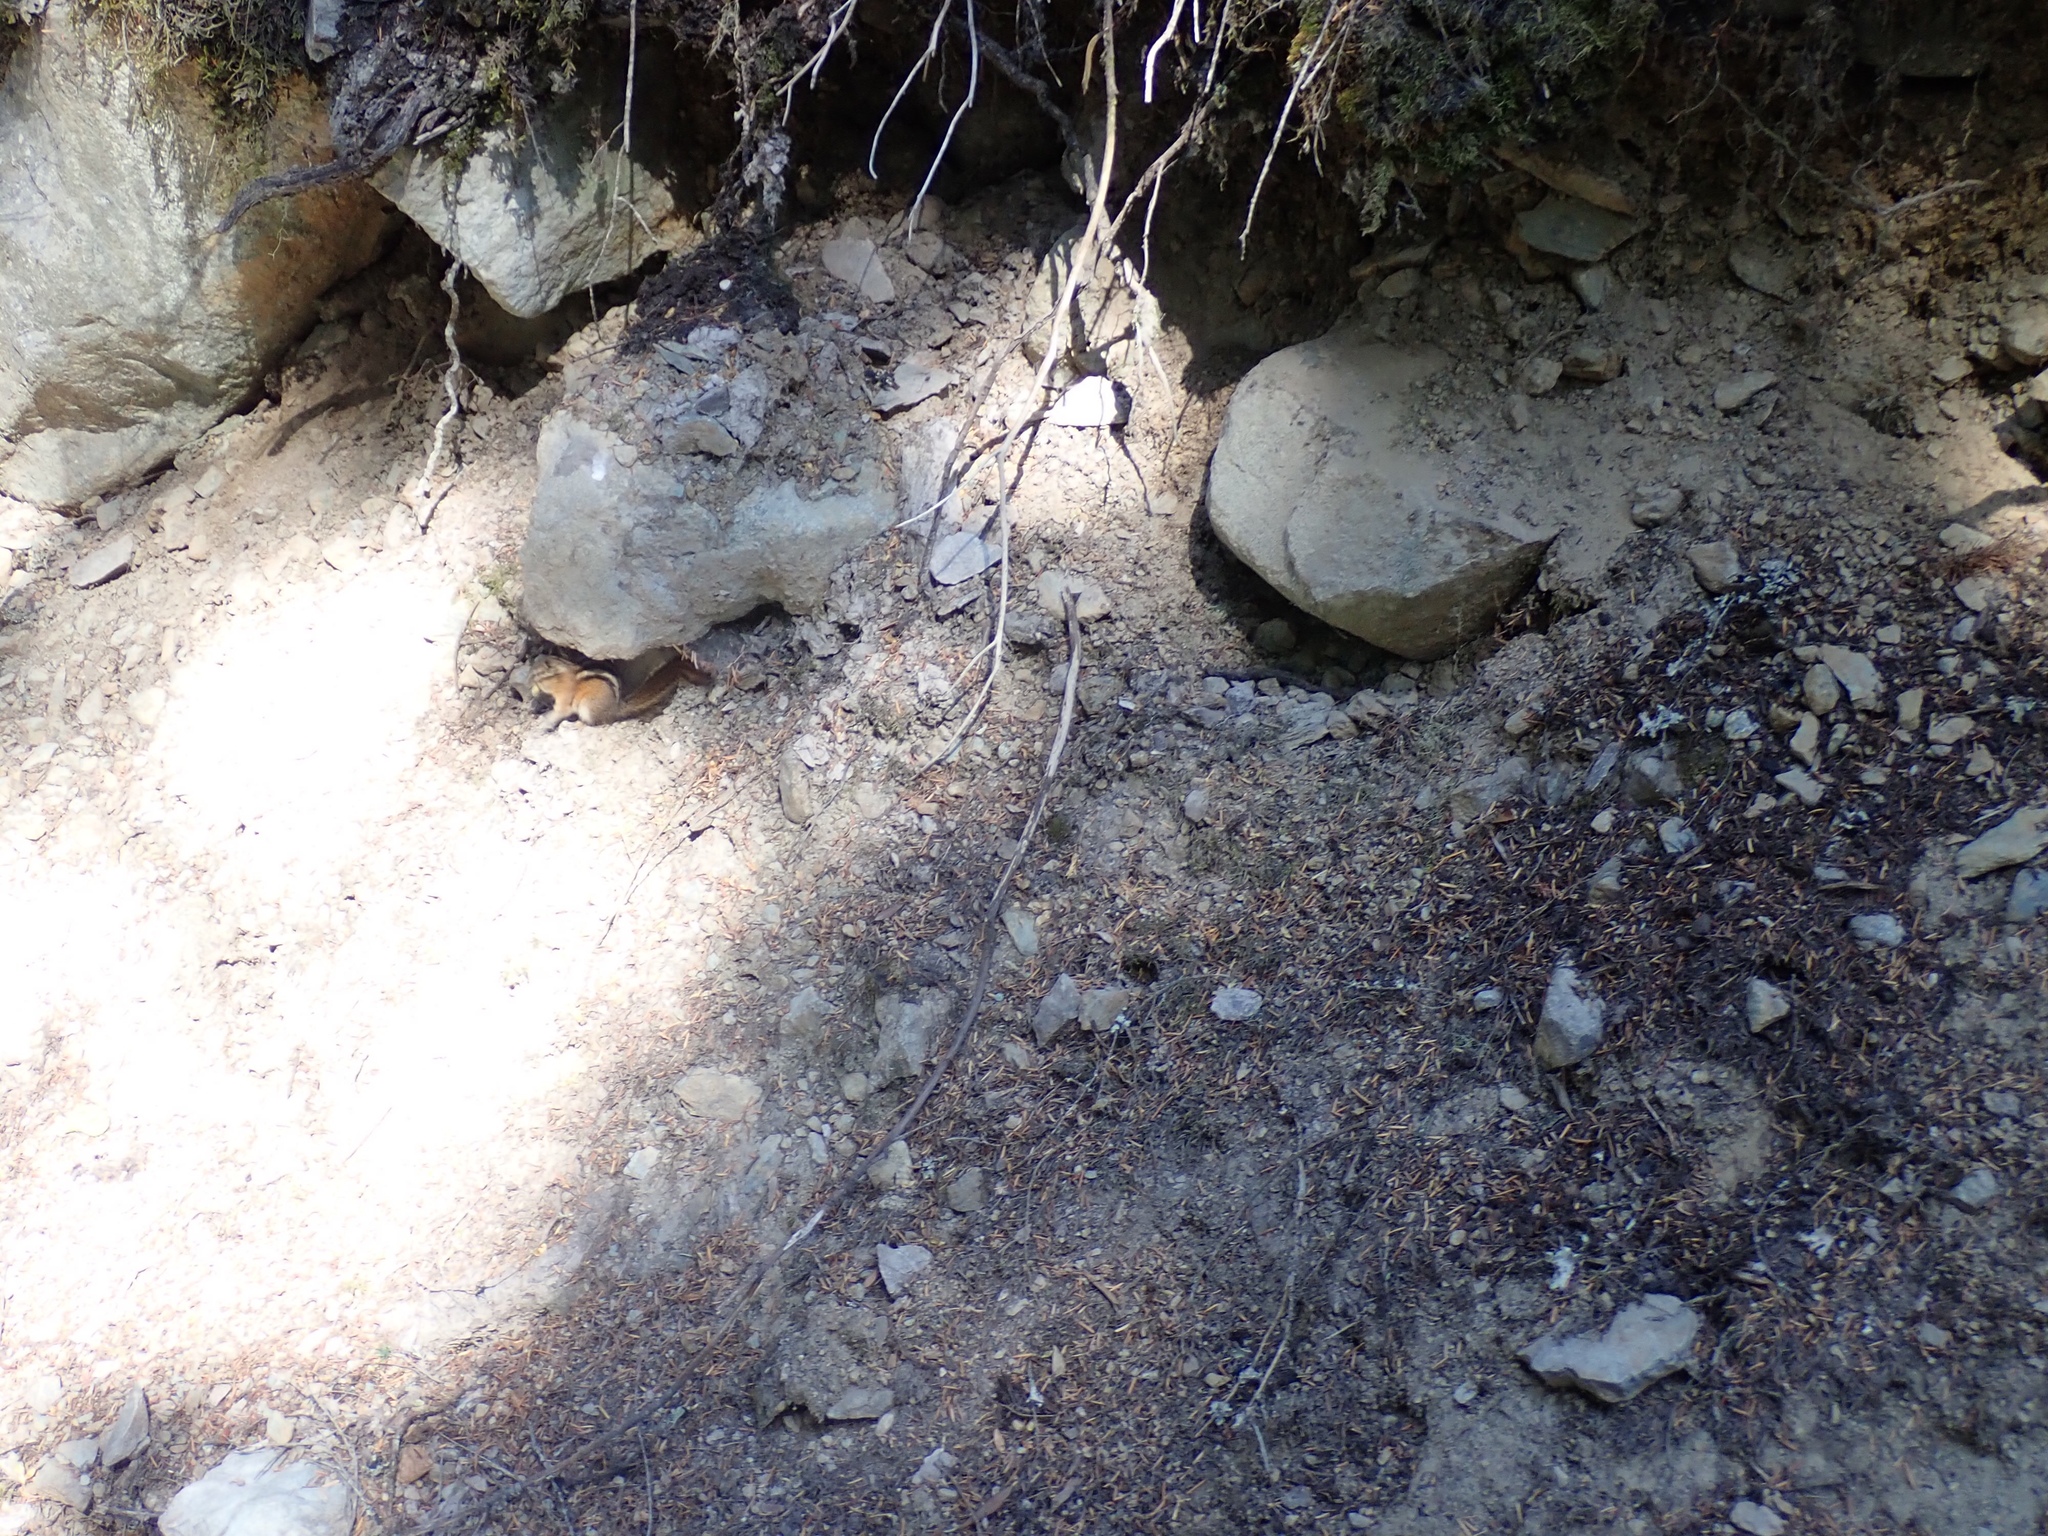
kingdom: Animalia
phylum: Chordata
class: Mammalia
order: Rodentia
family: Sciuridae
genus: Tamias
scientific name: Tamias amoenus
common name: Yellow-pine chipmunk
